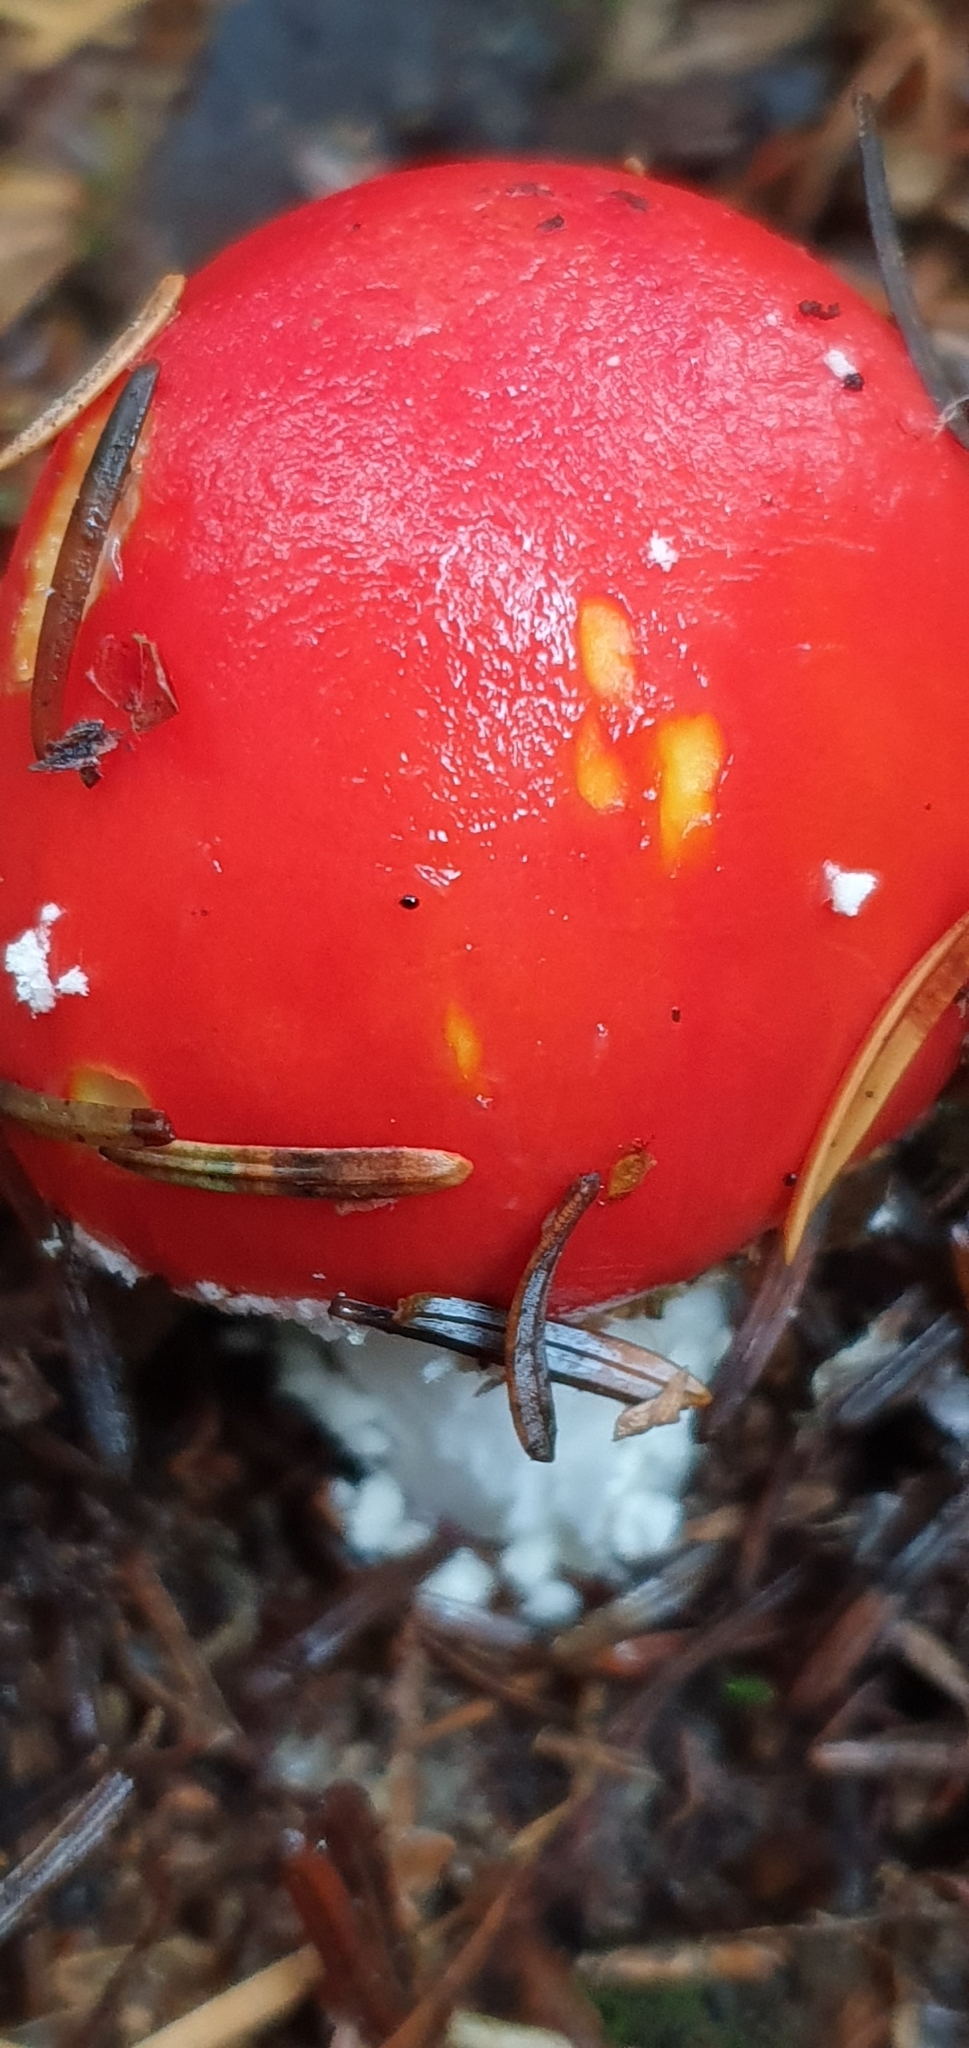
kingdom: Fungi
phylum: Basidiomycota
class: Agaricomycetes
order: Agaricales
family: Amanitaceae
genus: Amanita
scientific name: Amanita muscaria
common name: Fly agaric
